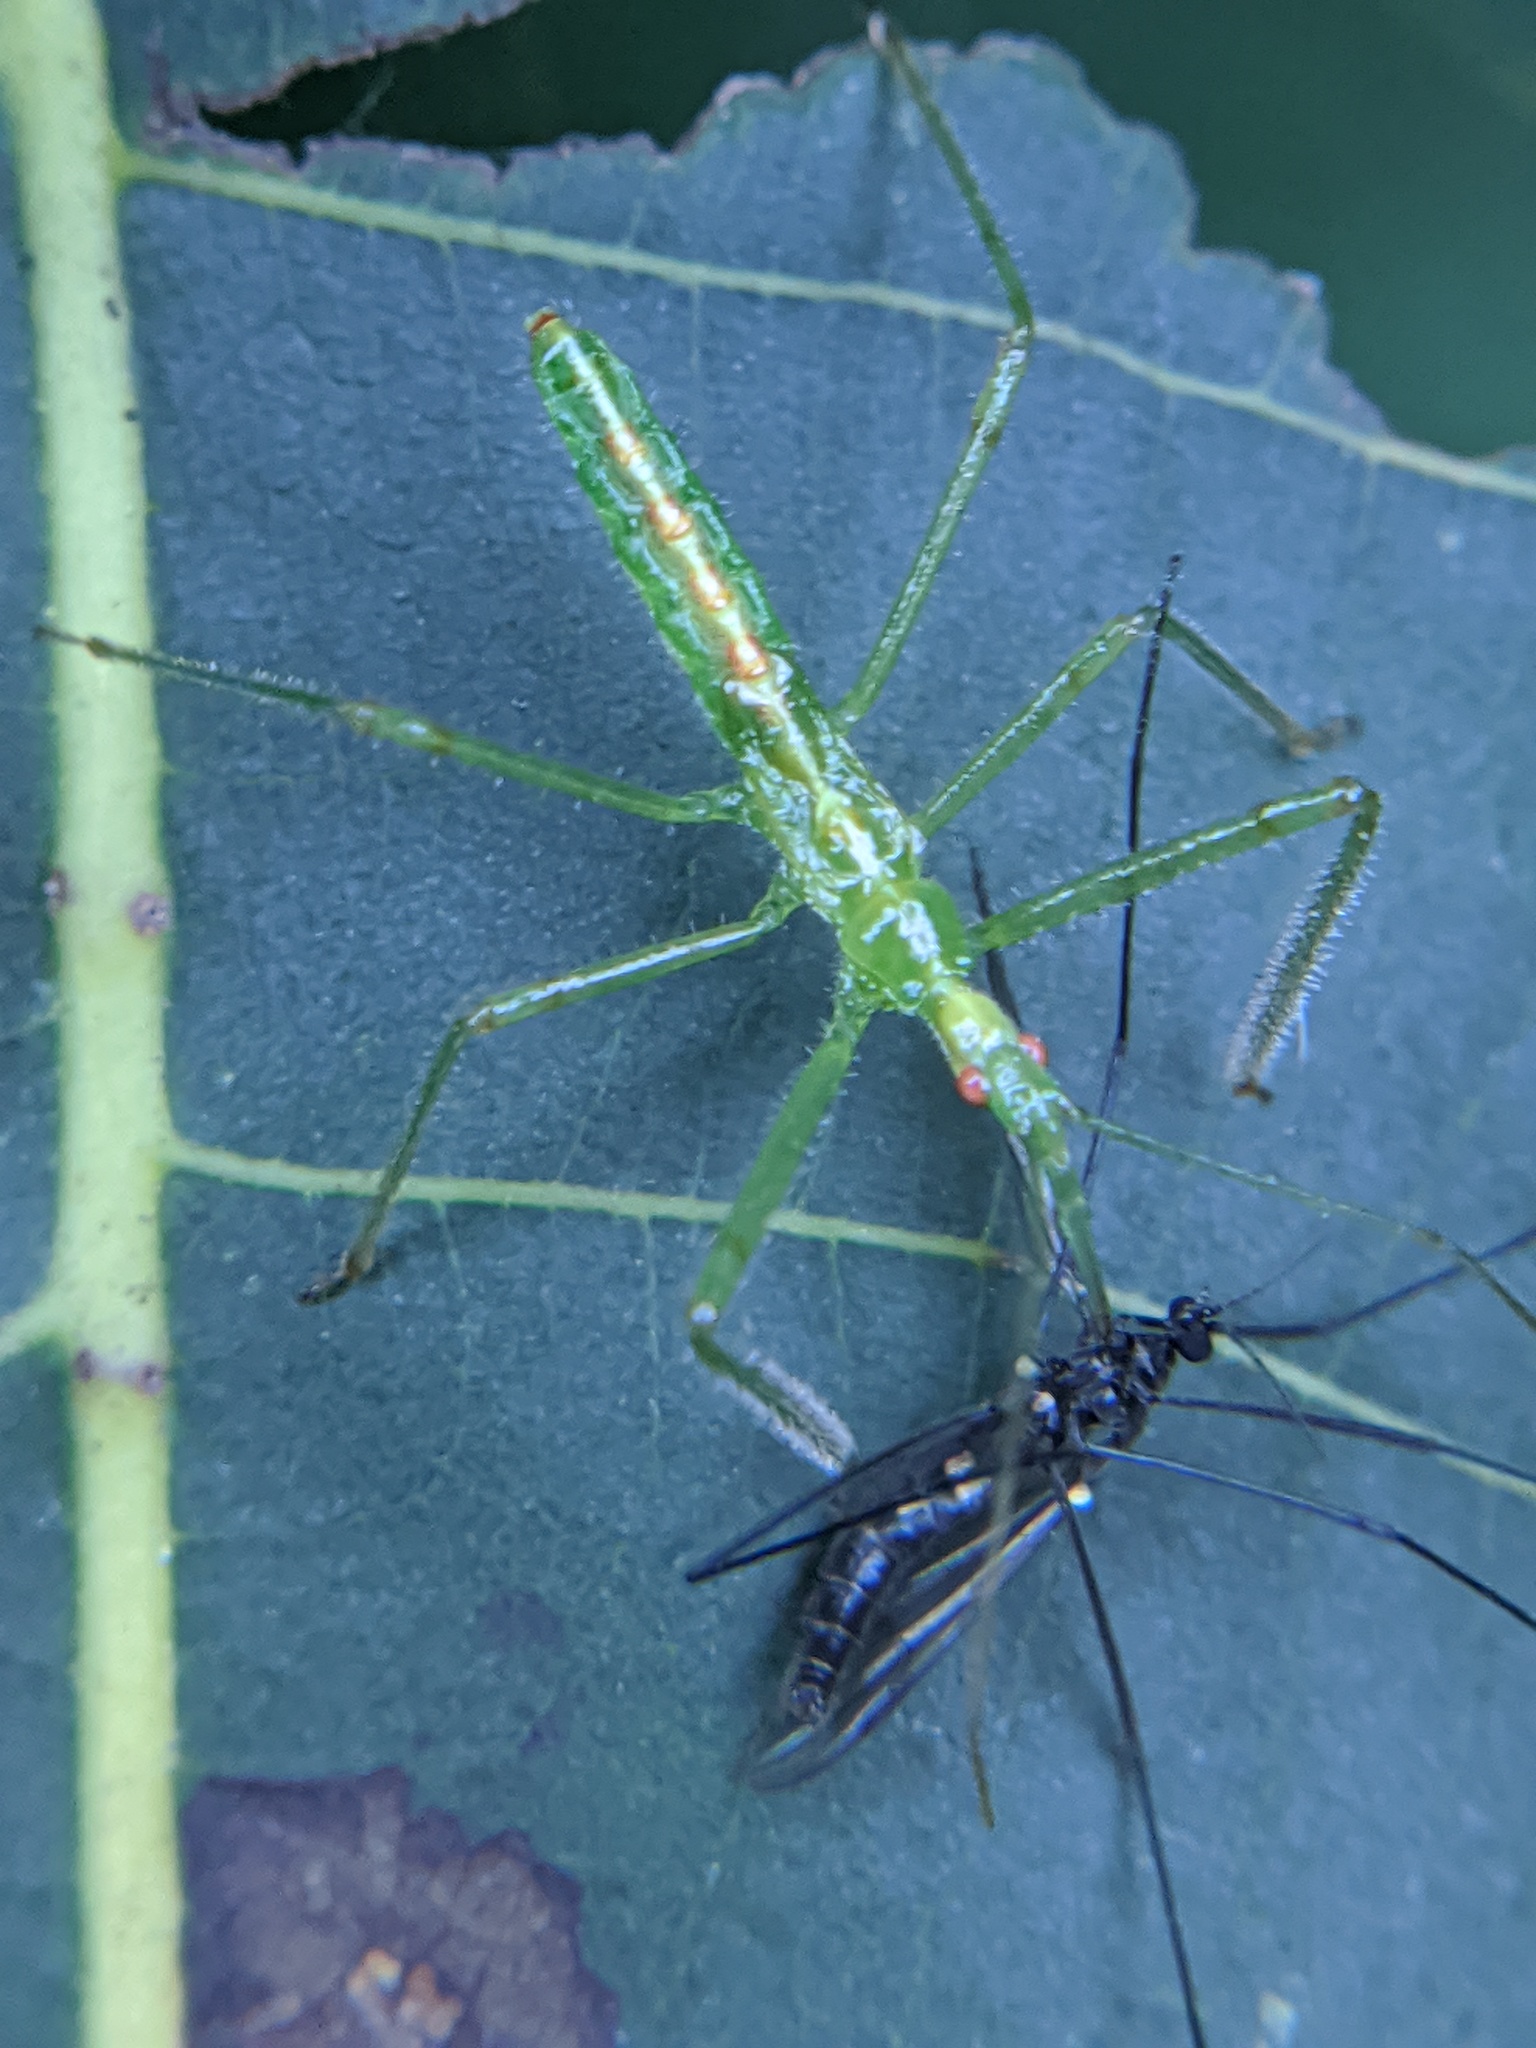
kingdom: Animalia
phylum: Arthropoda
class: Insecta
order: Hemiptera
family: Reduviidae
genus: Zelus
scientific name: Zelus luridus
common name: Pale green assassin bug
